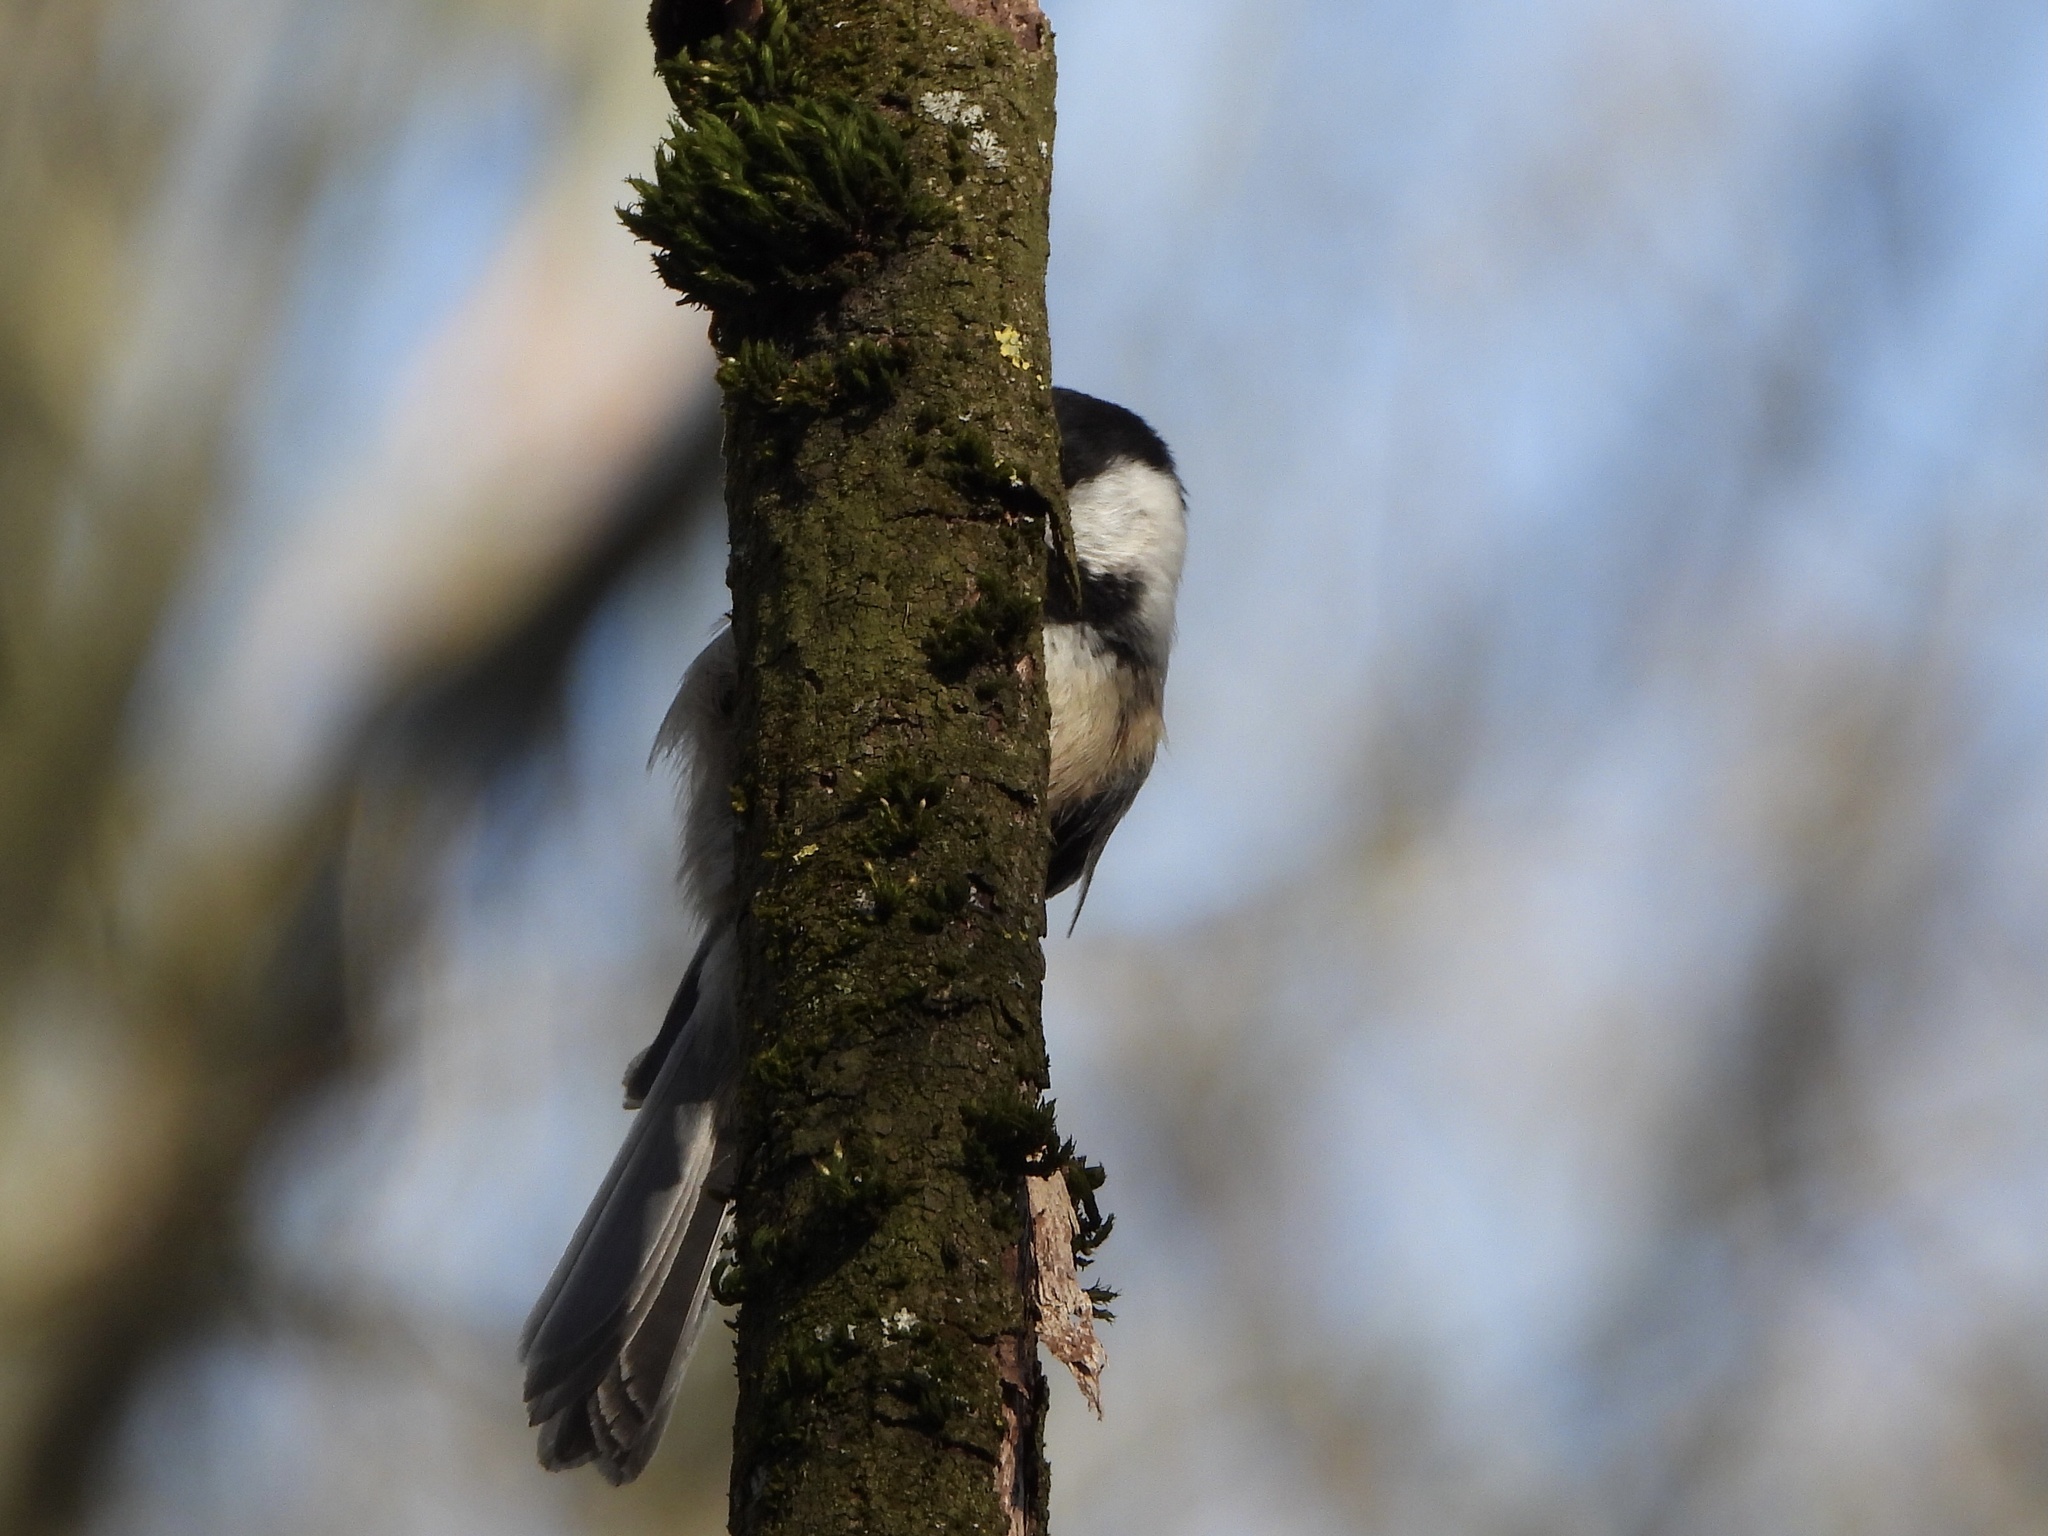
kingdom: Animalia
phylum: Chordata
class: Aves
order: Passeriformes
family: Paridae
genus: Poecile
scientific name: Poecile atricapillus
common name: Black-capped chickadee
